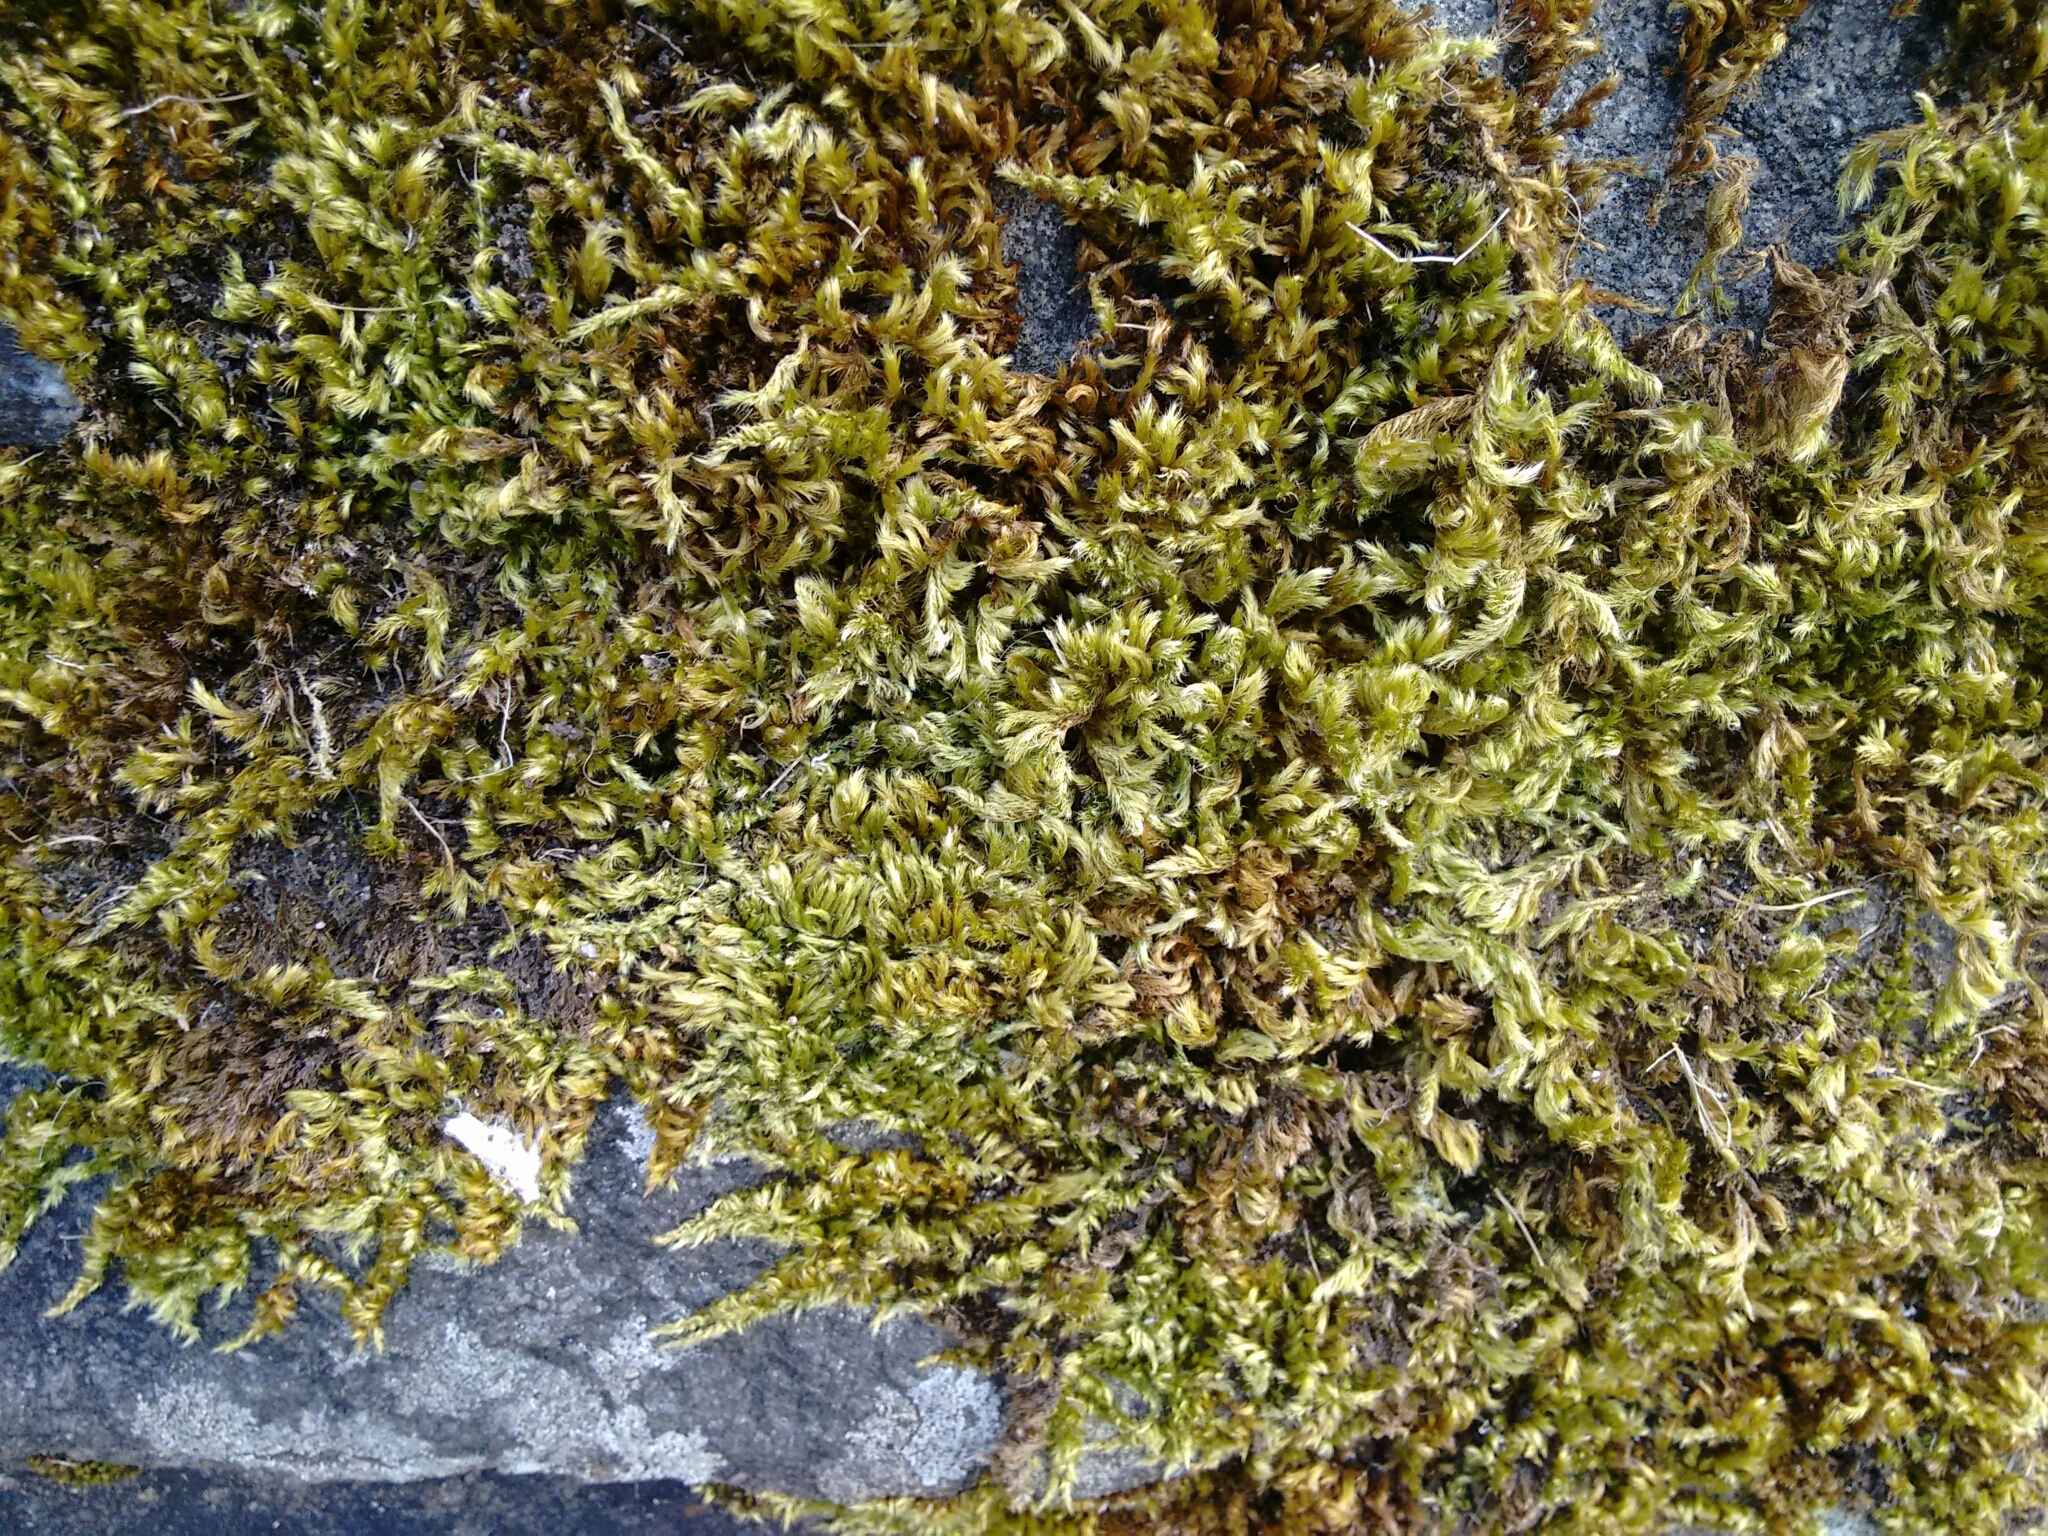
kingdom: Plantae
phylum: Bryophyta
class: Bryopsida
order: Hypnales
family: Brachytheciaceae
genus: Homalothecium
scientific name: Homalothecium sericeum
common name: Silky wall feather-moss
